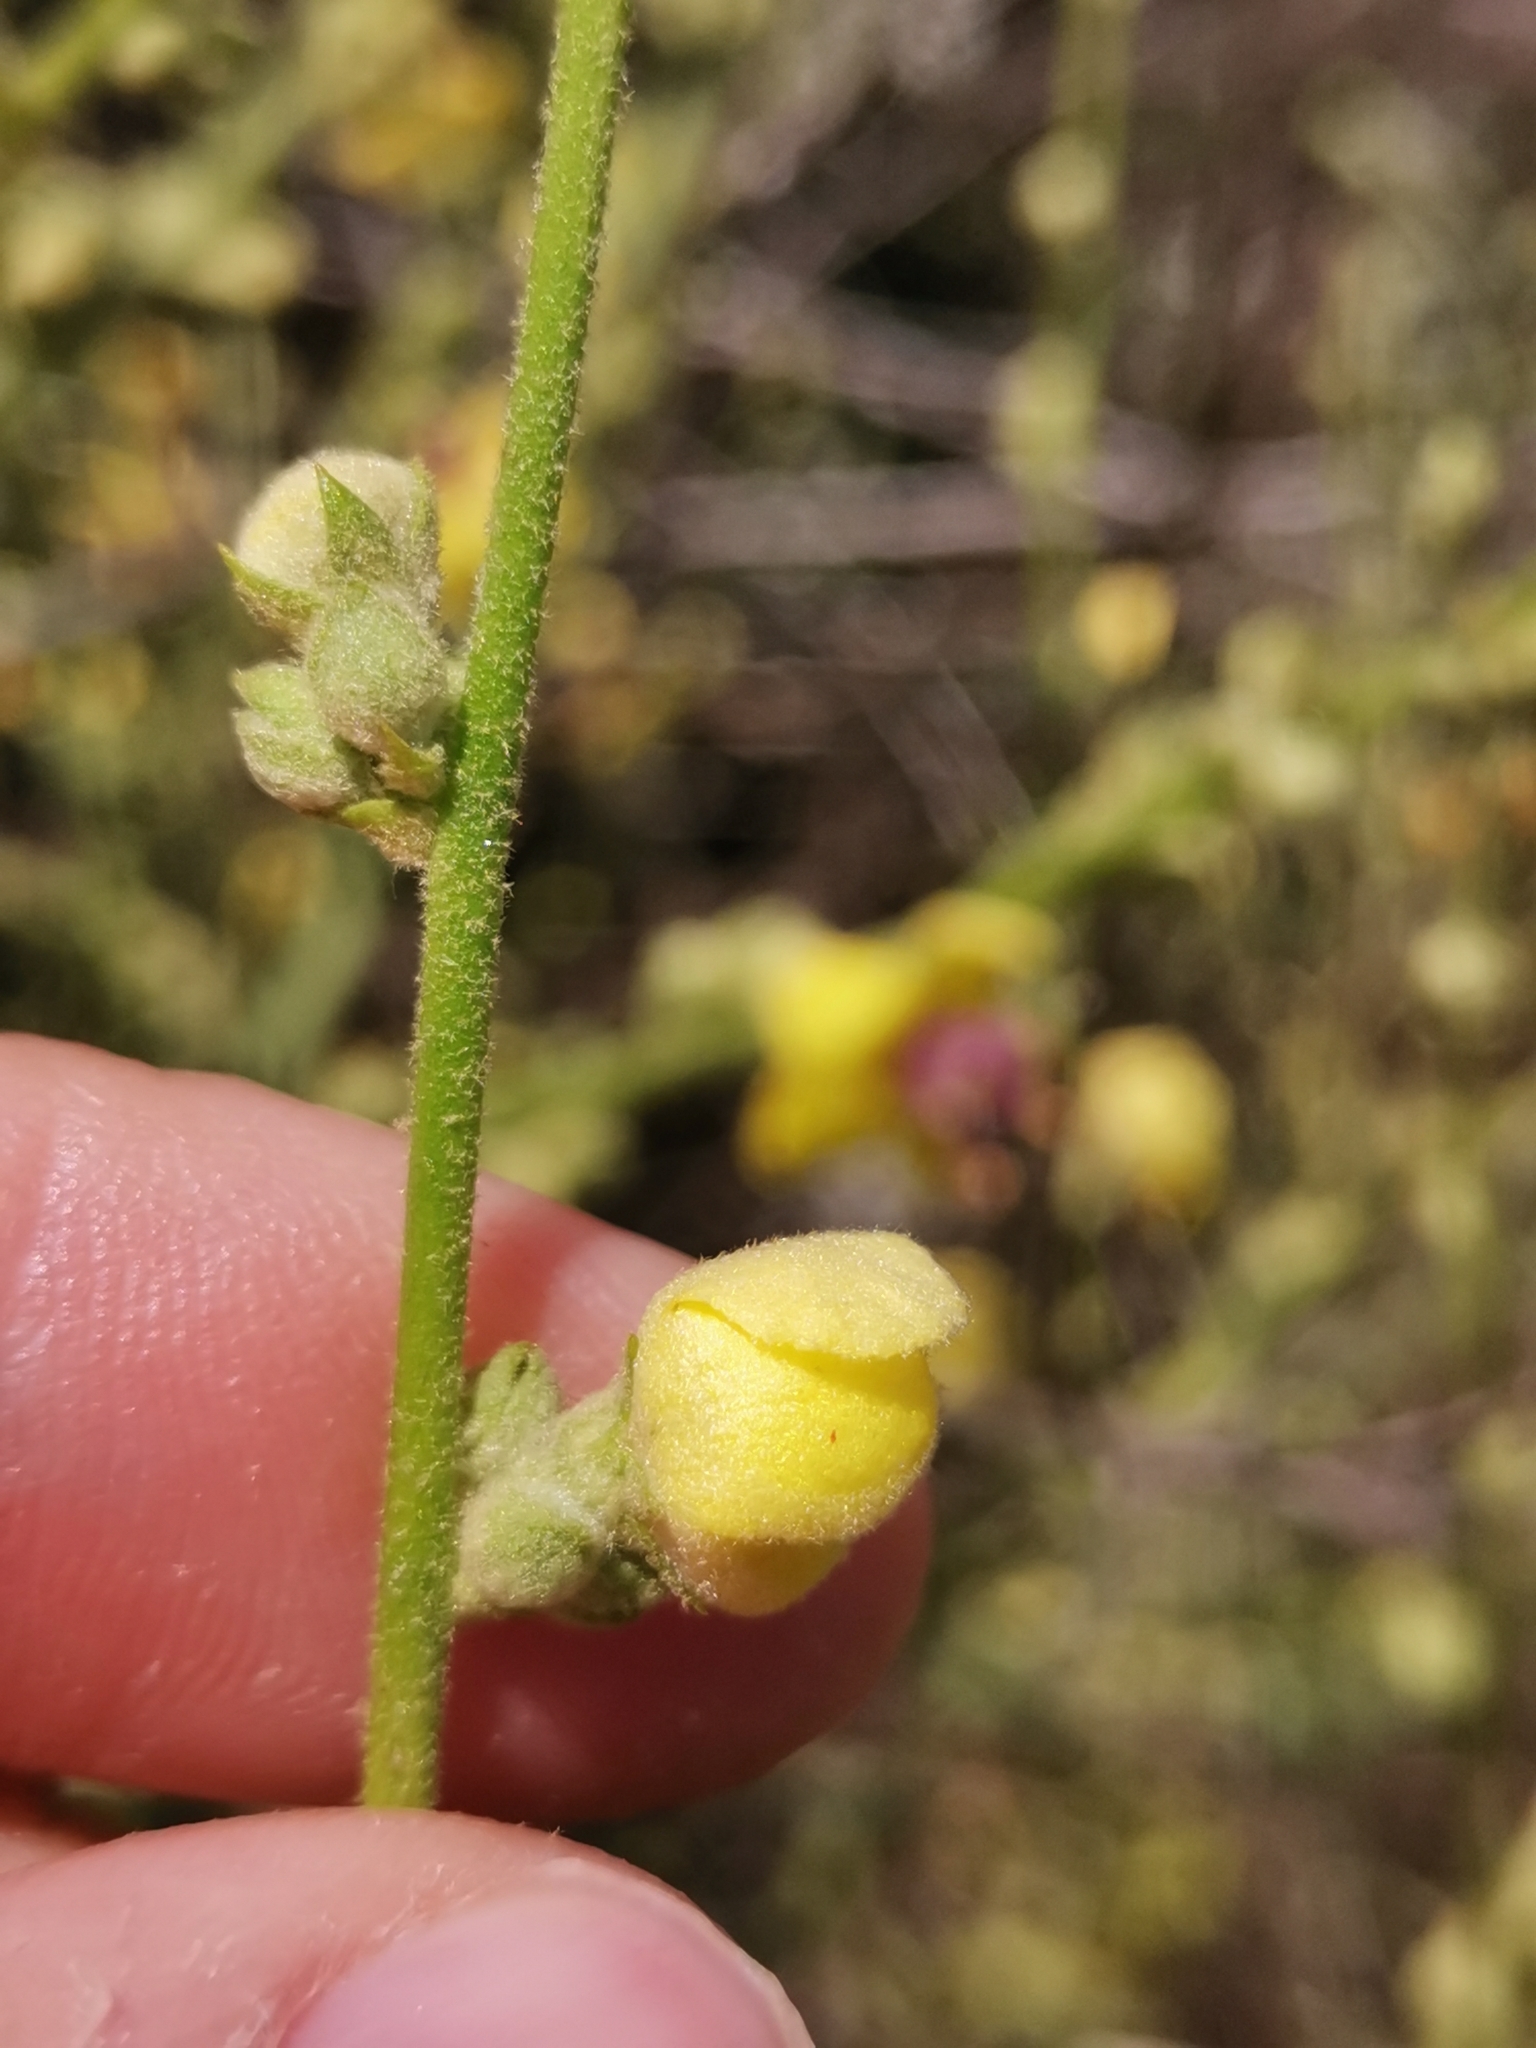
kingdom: Plantae
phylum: Tracheophyta
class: Magnoliopsida
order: Lamiales
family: Scrophulariaceae
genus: Verbascum
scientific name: Verbascum sinuatum
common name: Wavyleaf mullein
